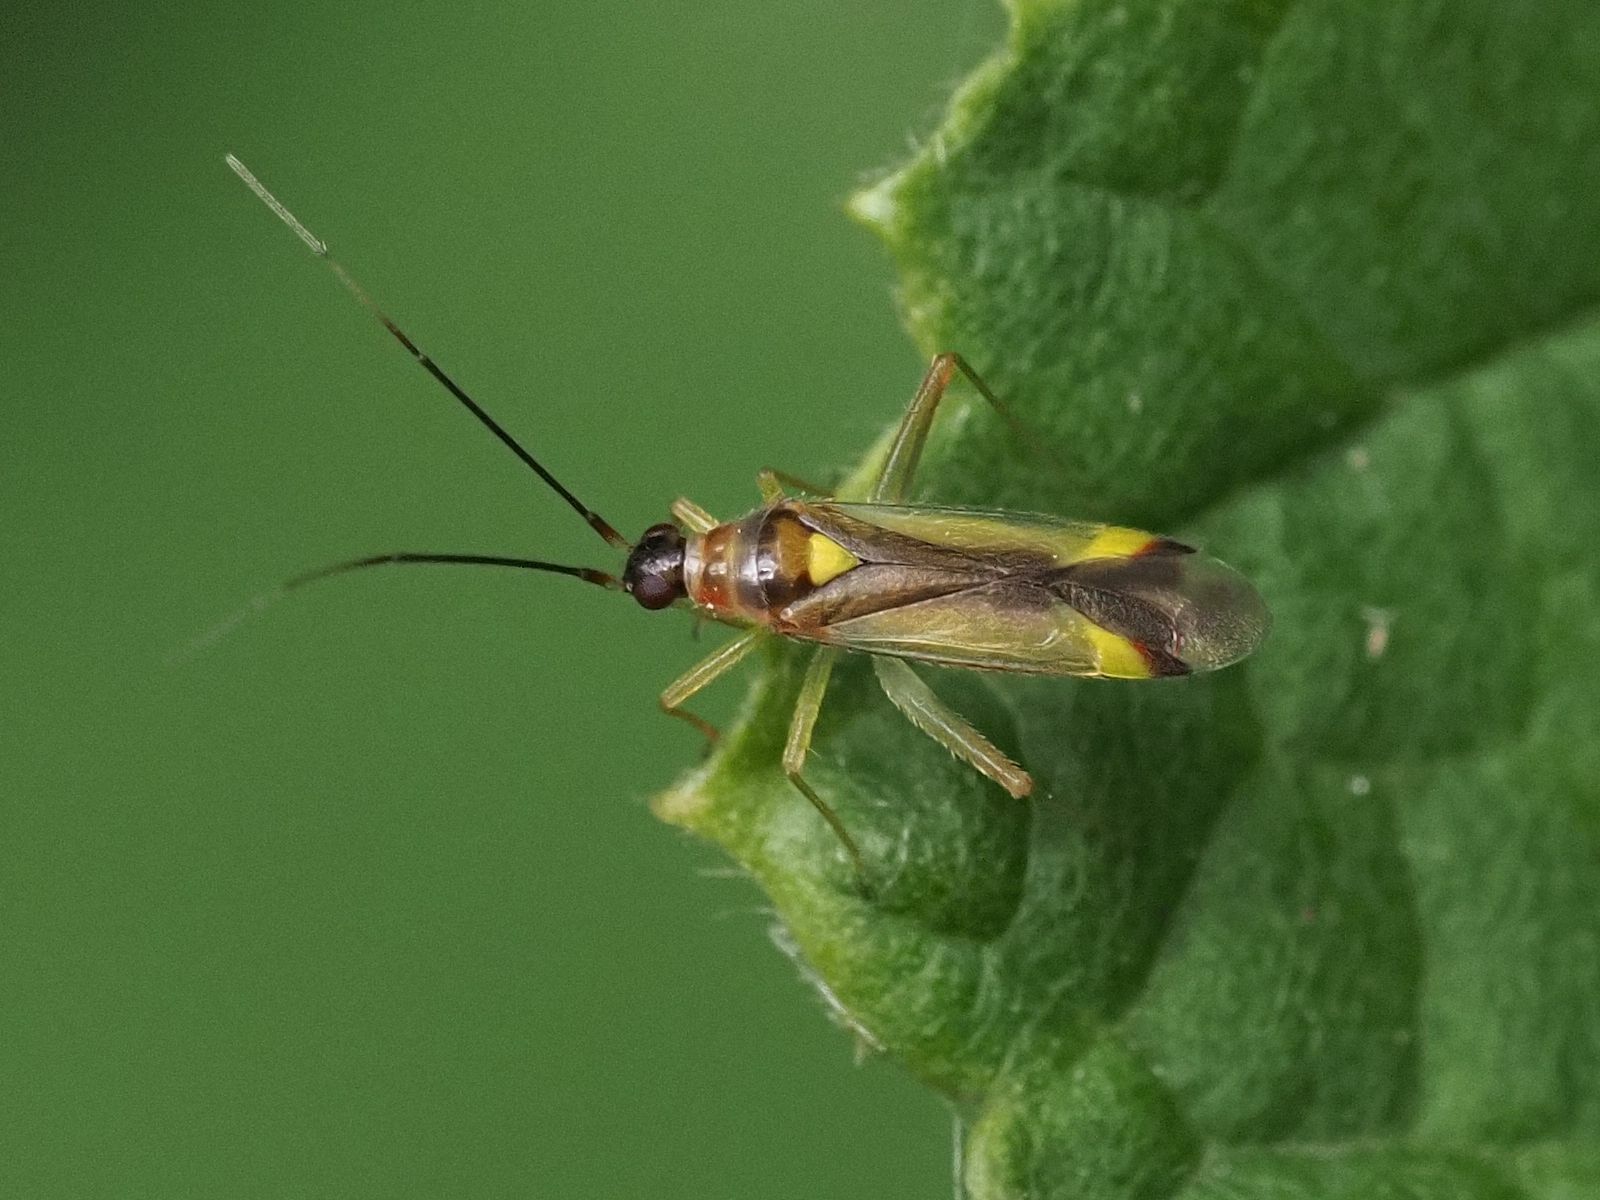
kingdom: Animalia
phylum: Arthropoda
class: Insecta
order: Hemiptera
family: Miridae
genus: Campyloneura
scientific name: Campyloneura virgula
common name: Predatory bug
